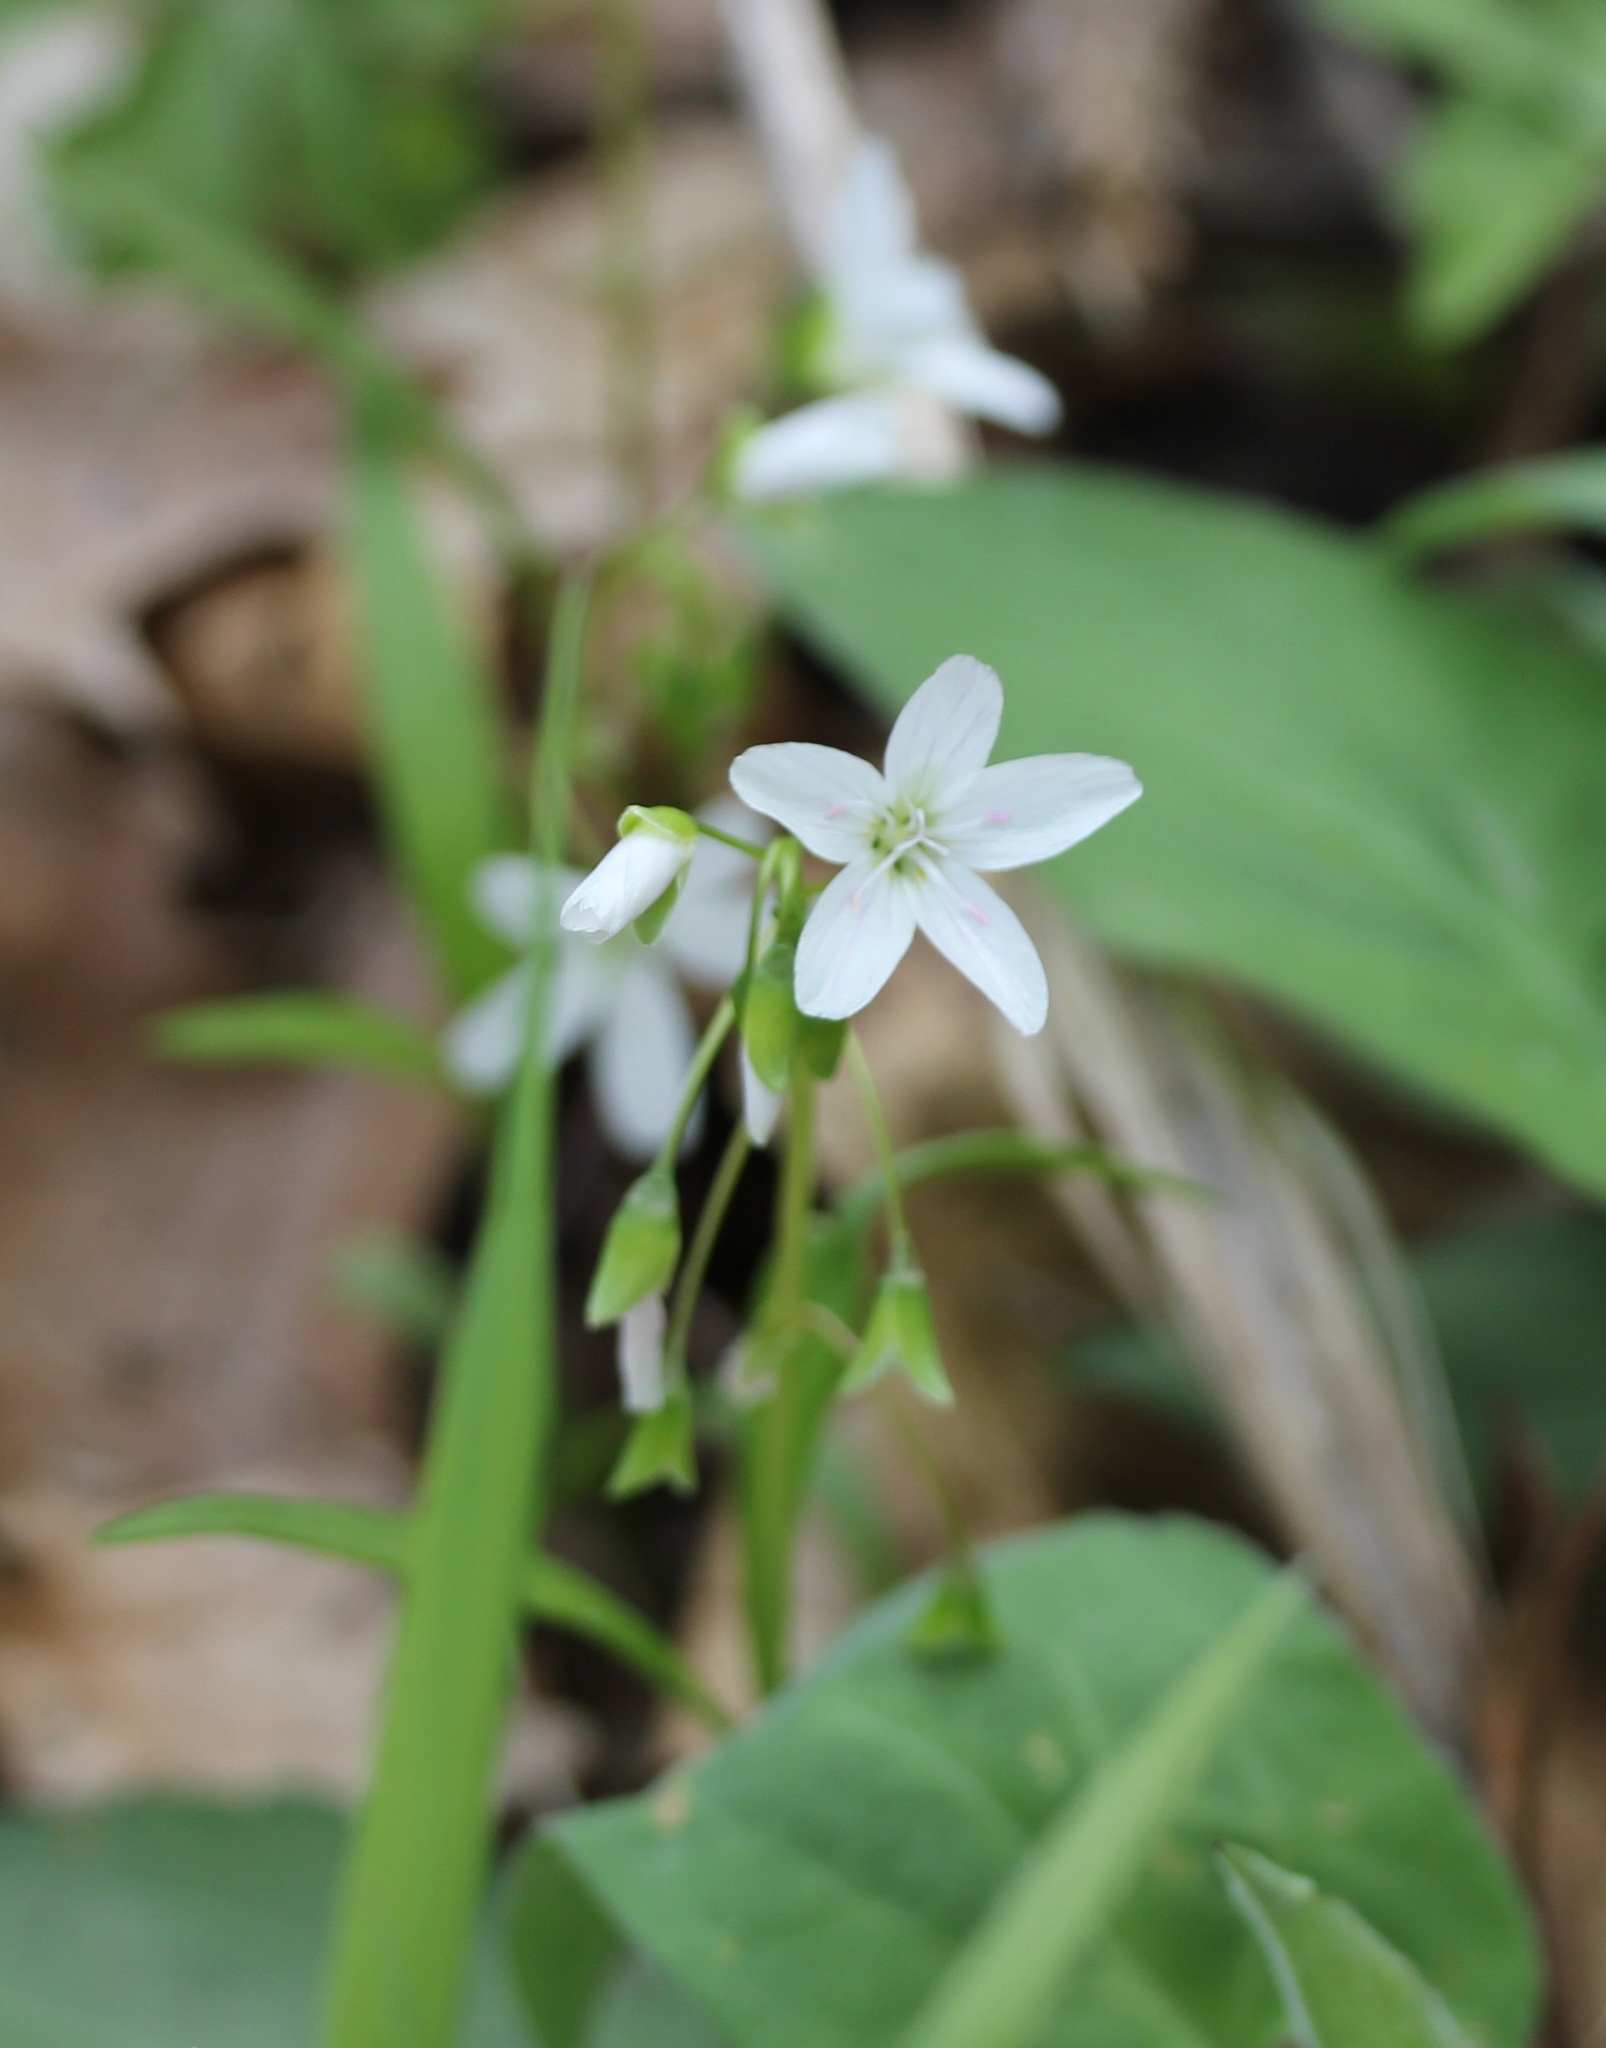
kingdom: Plantae
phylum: Tracheophyta
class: Magnoliopsida
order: Caryophyllales
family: Montiaceae
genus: Claytonia
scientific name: Claytonia virginica
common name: Virginia springbeauty
